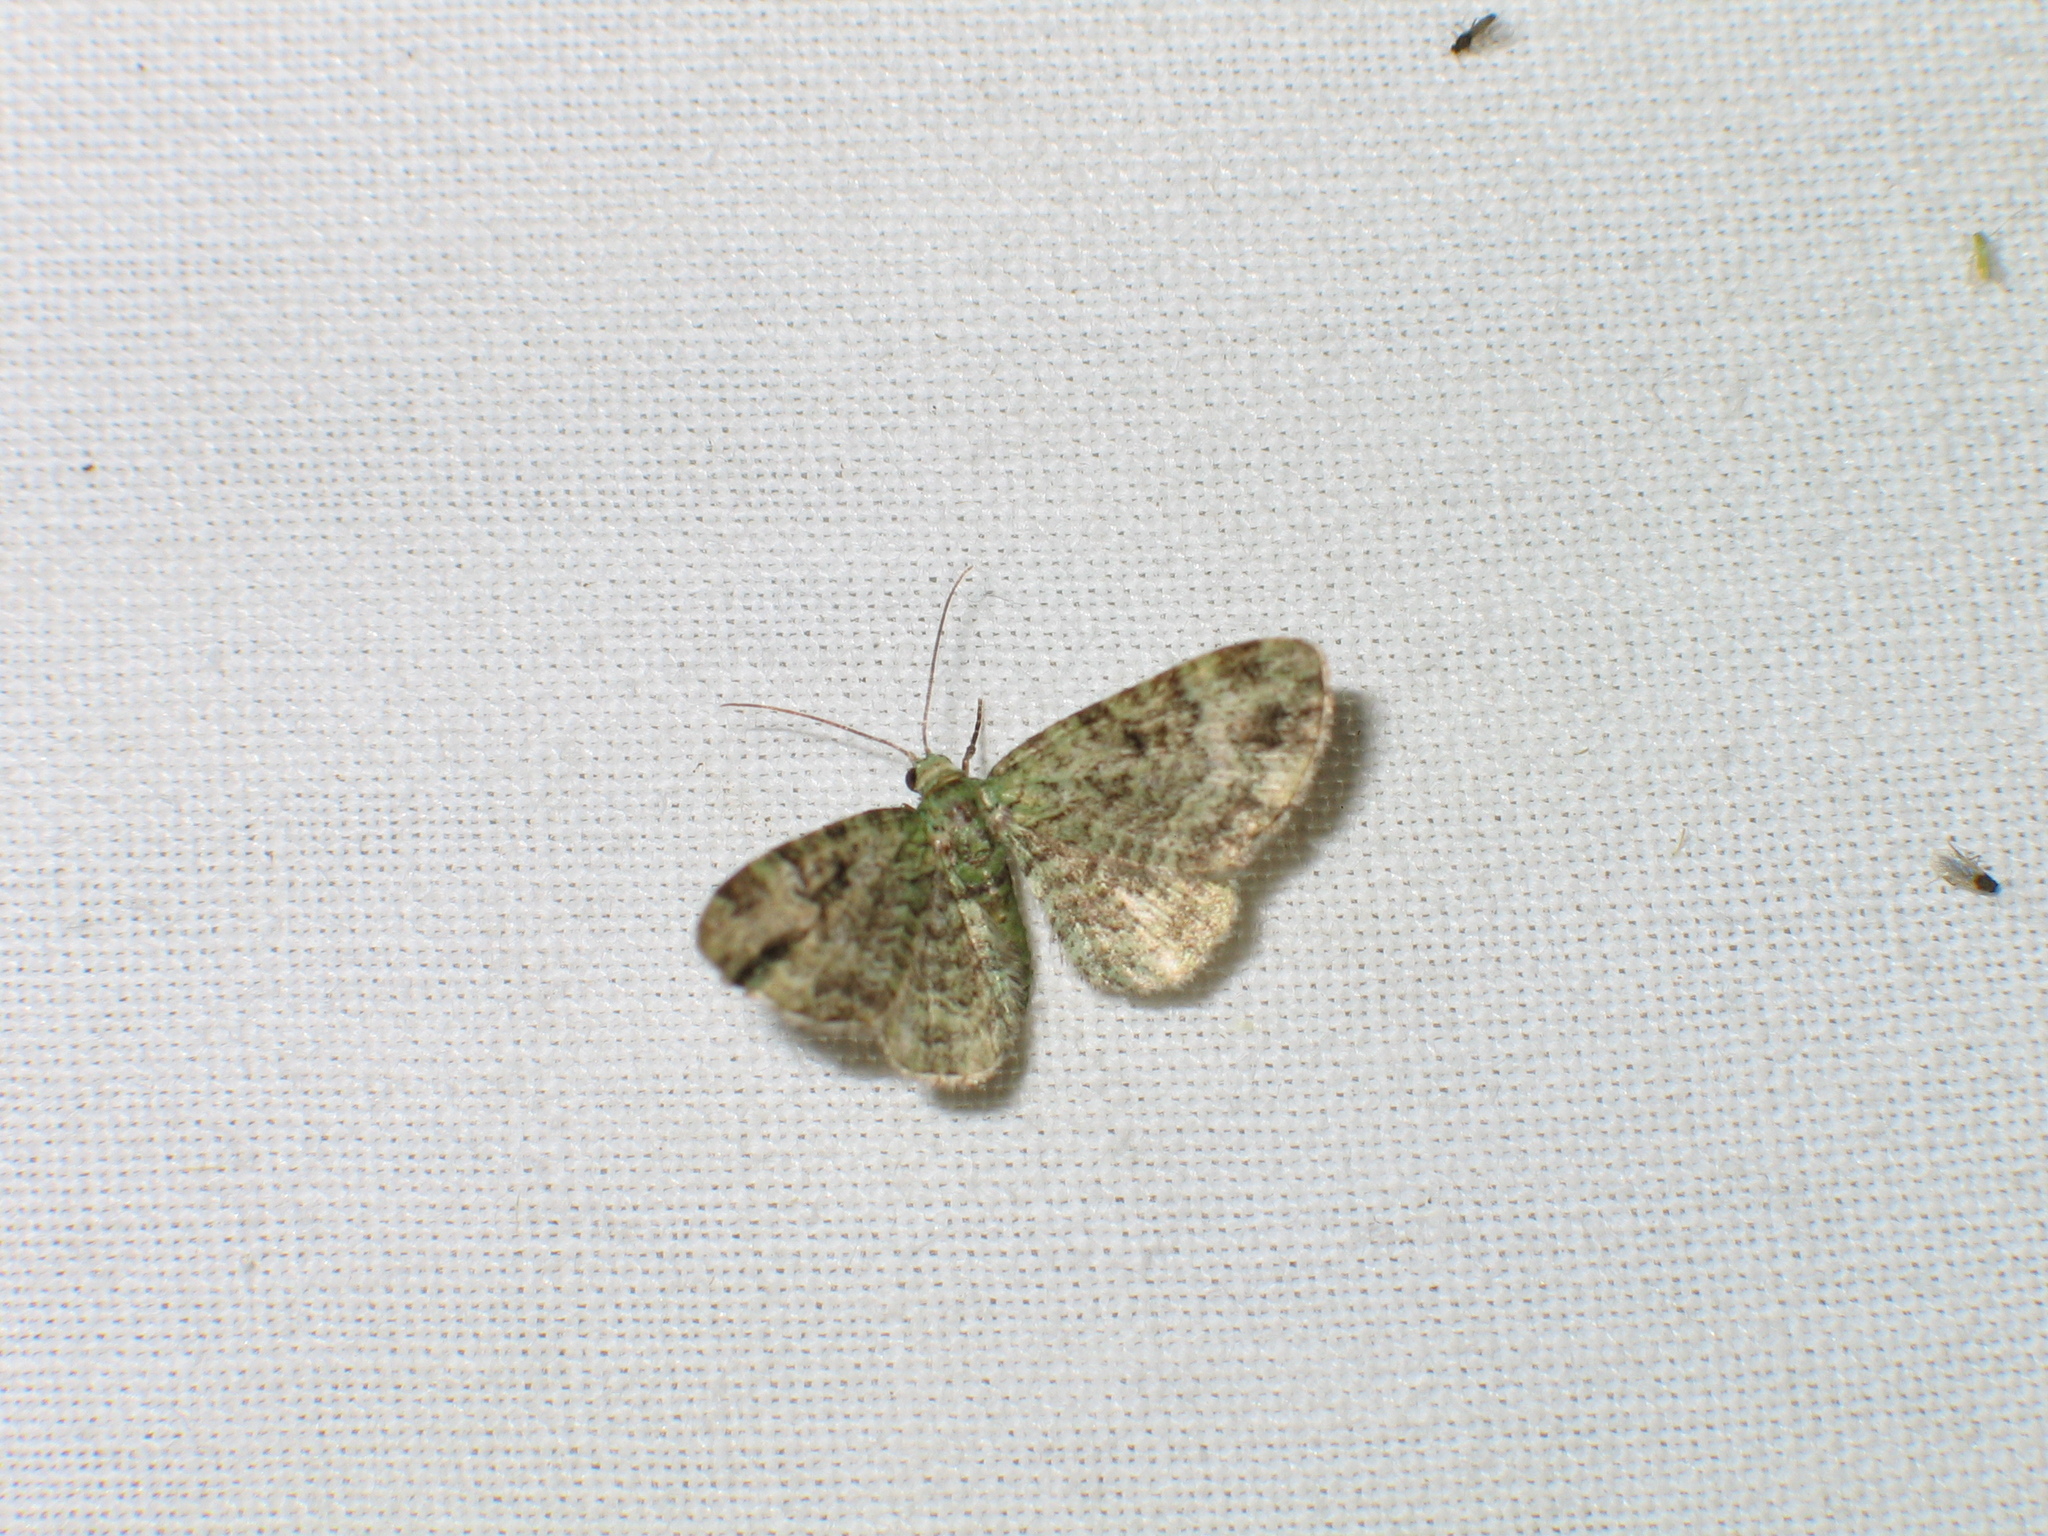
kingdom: Animalia
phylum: Arthropoda
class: Insecta
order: Lepidoptera
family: Geometridae
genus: Pasiphila
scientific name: Pasiphila rectangulata
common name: Green pug
